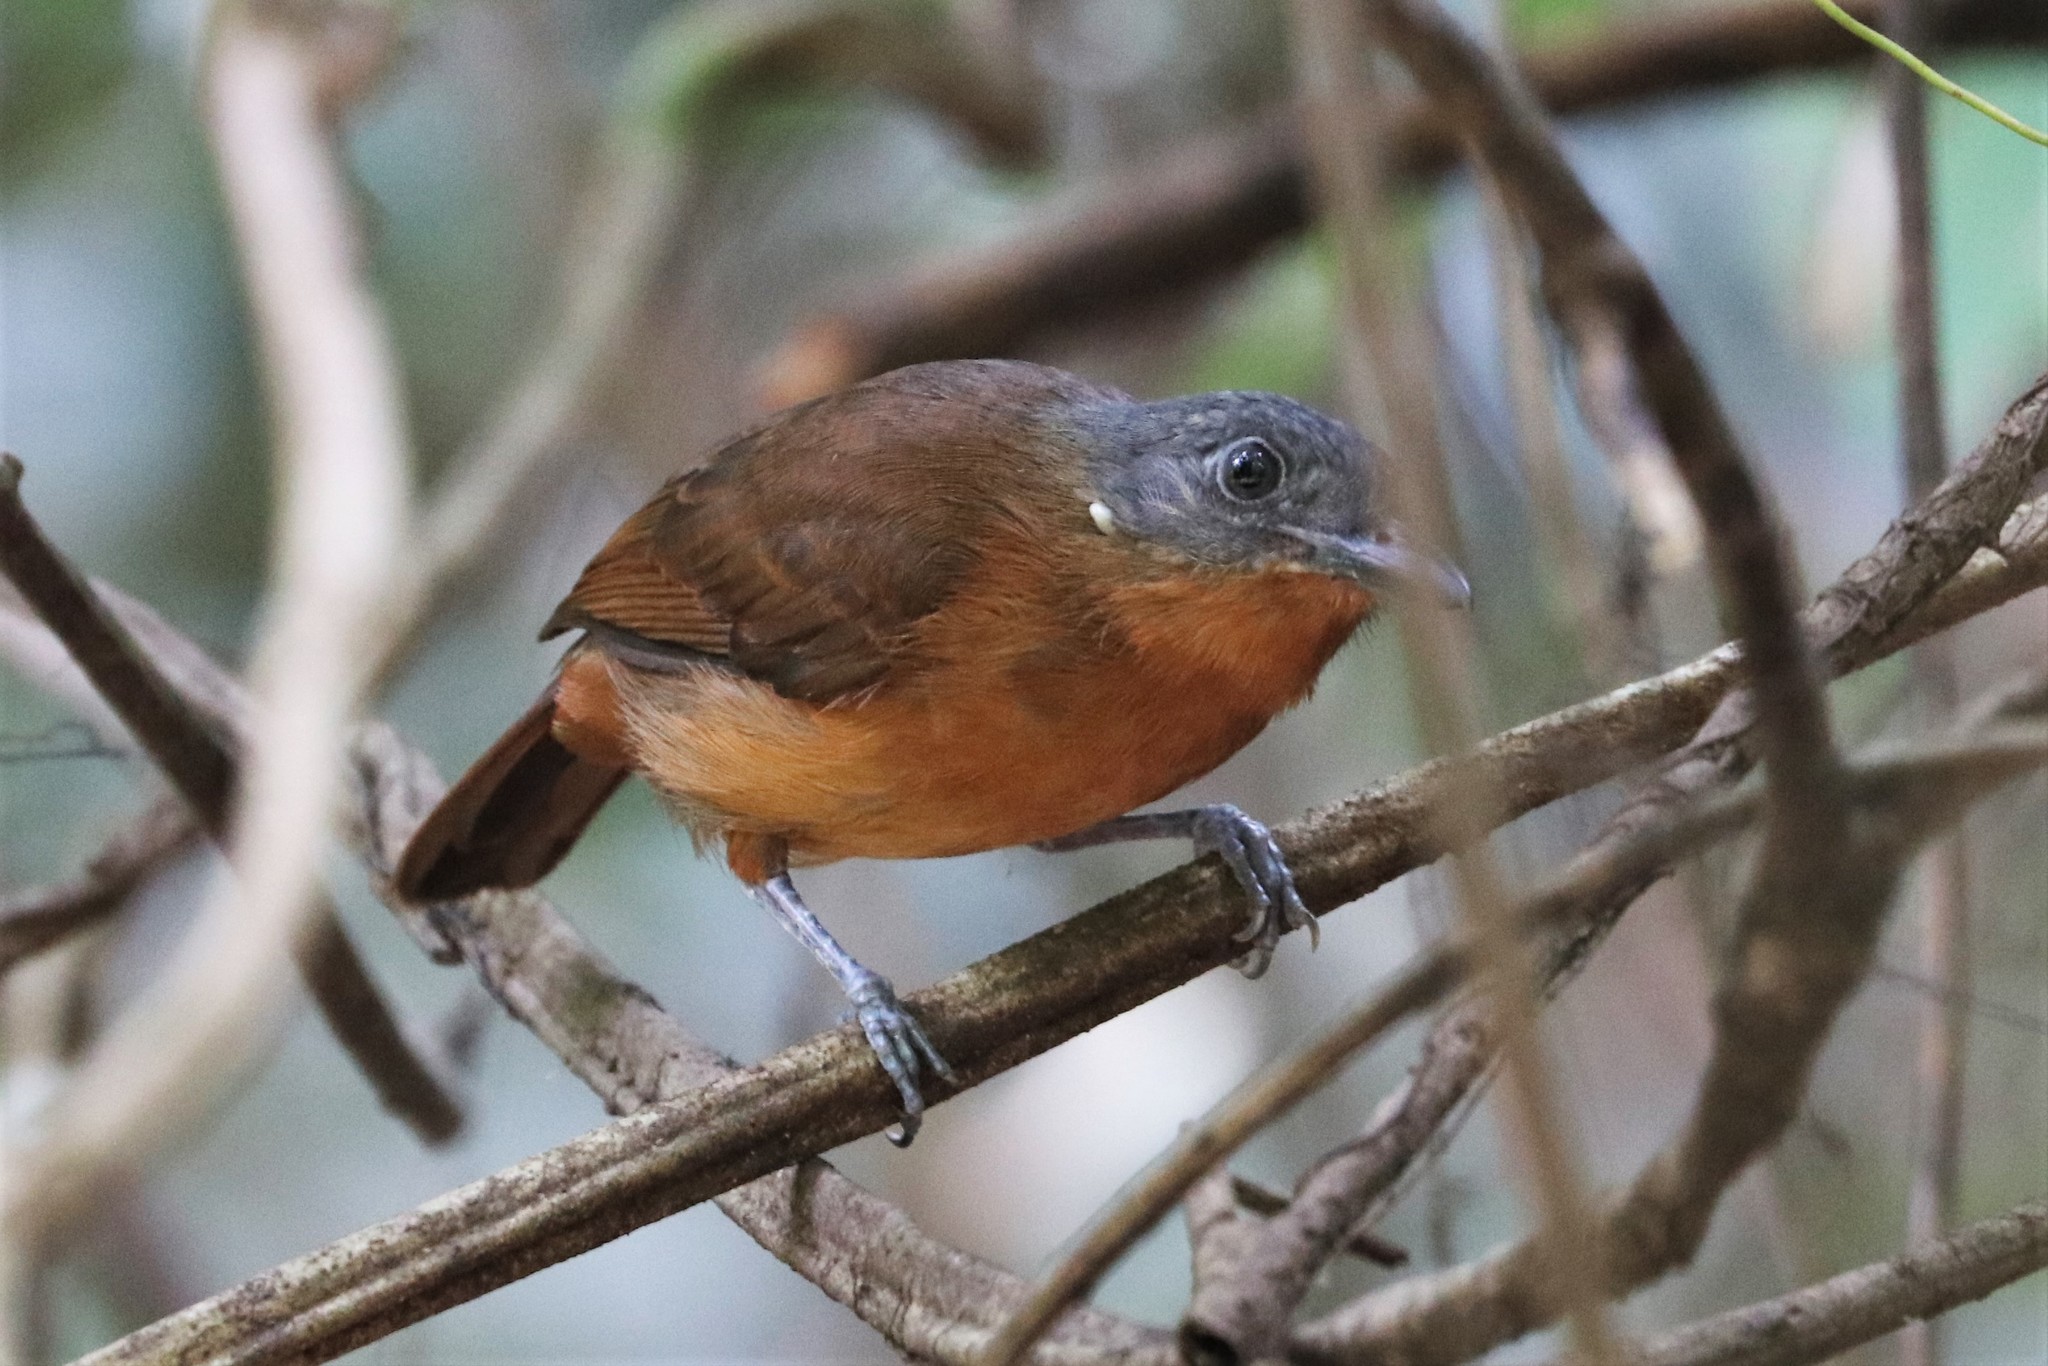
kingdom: Animalia
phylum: Chordata
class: Aves
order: Passeriformes
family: Thamnophilidae
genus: Thamnophilus
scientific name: Thamnophilus nigrocinereus
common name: Blackish-grey antshrike
